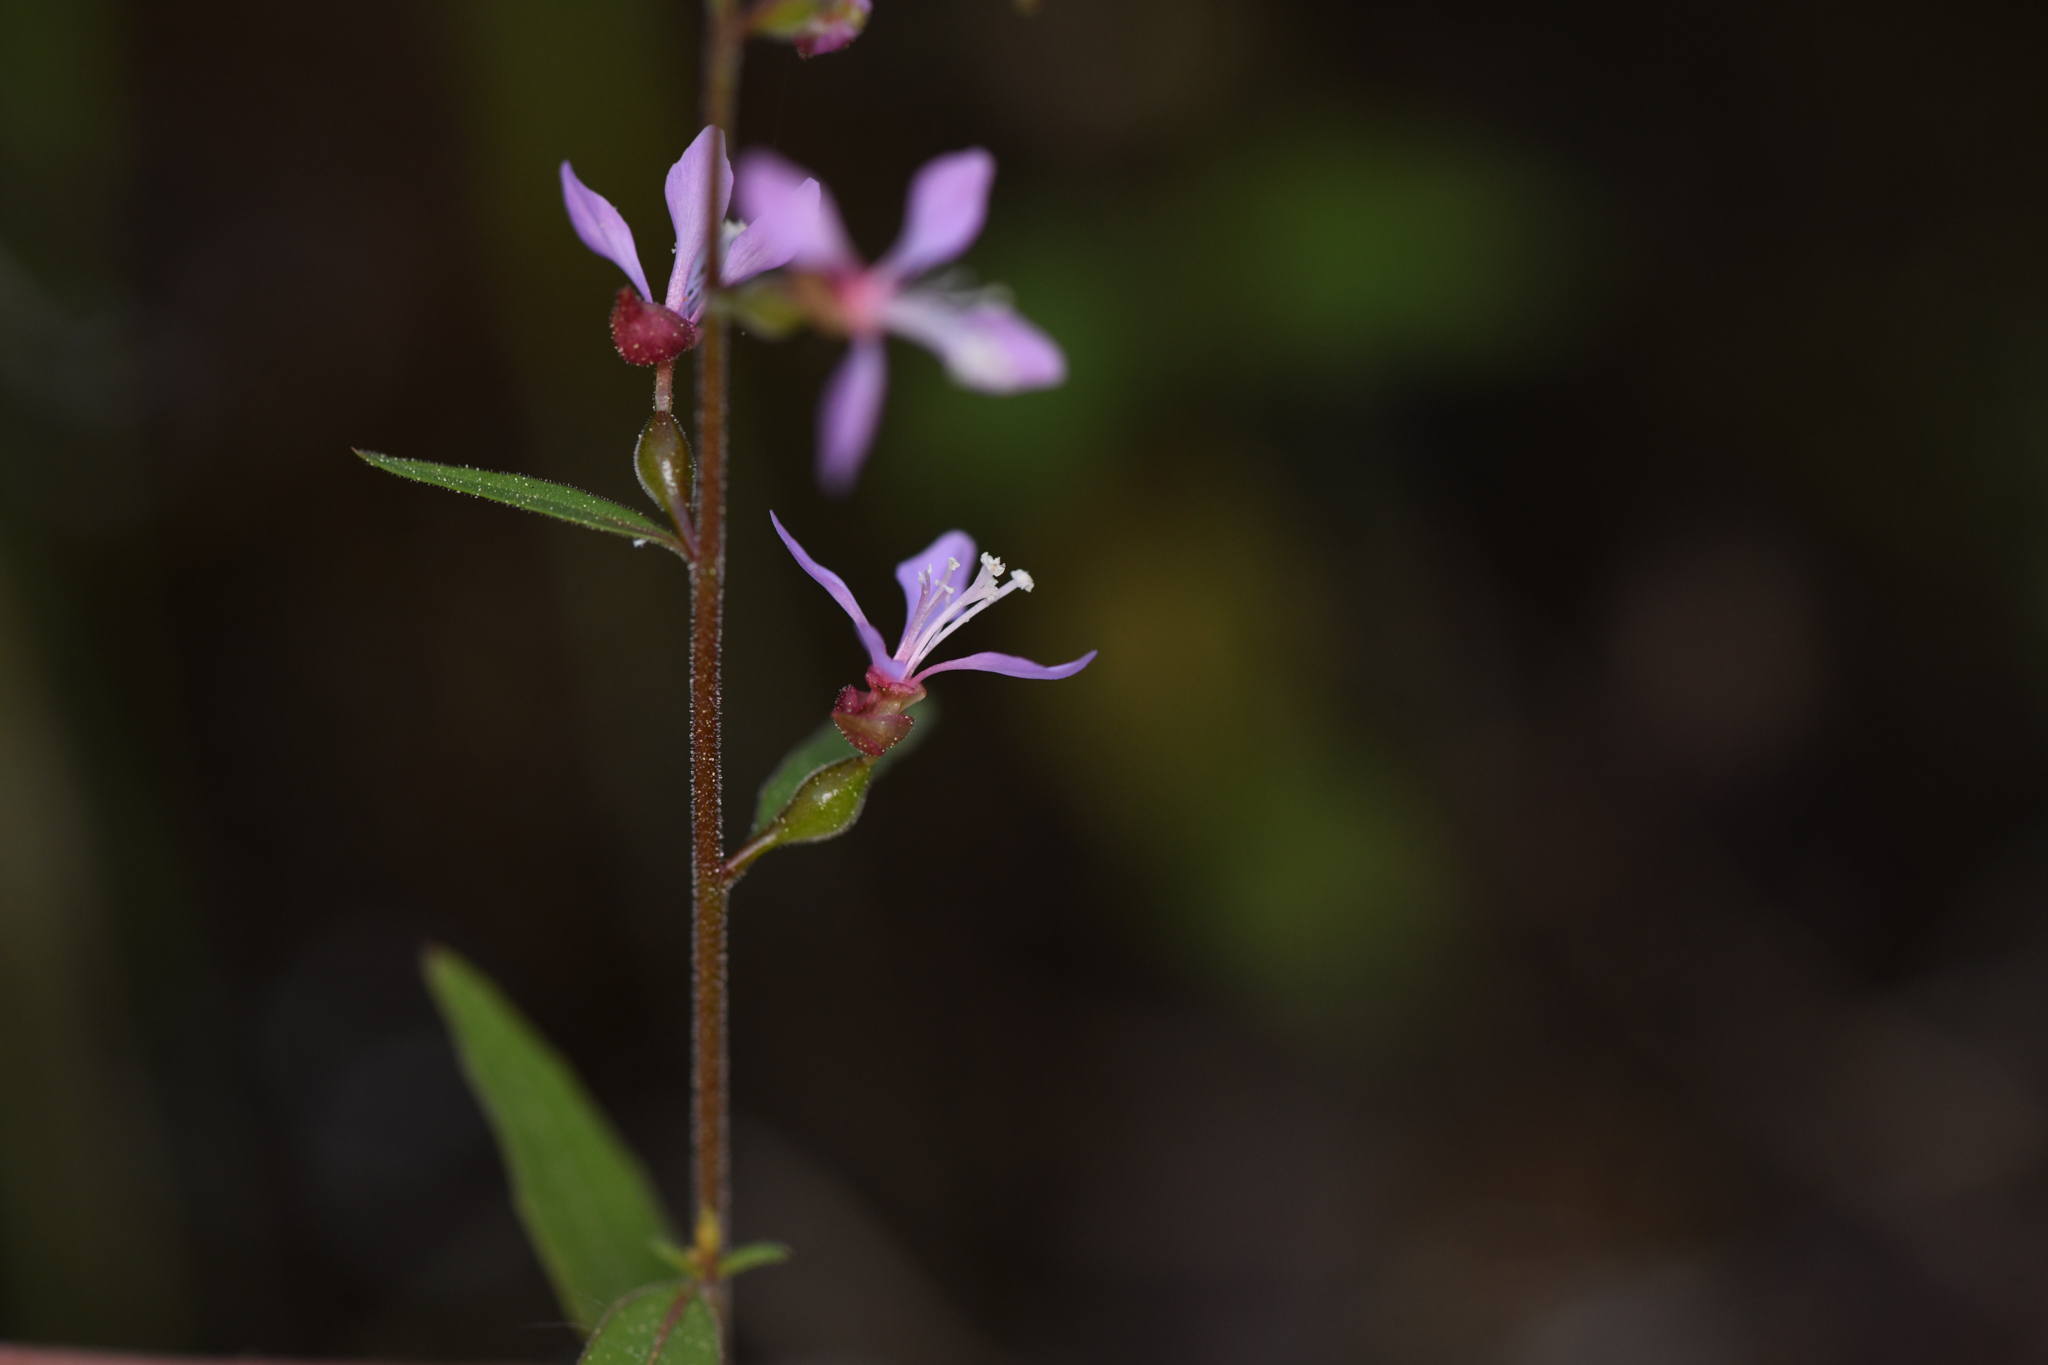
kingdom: Plantae
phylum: Tracheophyta
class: Magnoliopsida
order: Myrtales
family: Onagraceae
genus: Clarkia
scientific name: Clarkia heterandra
